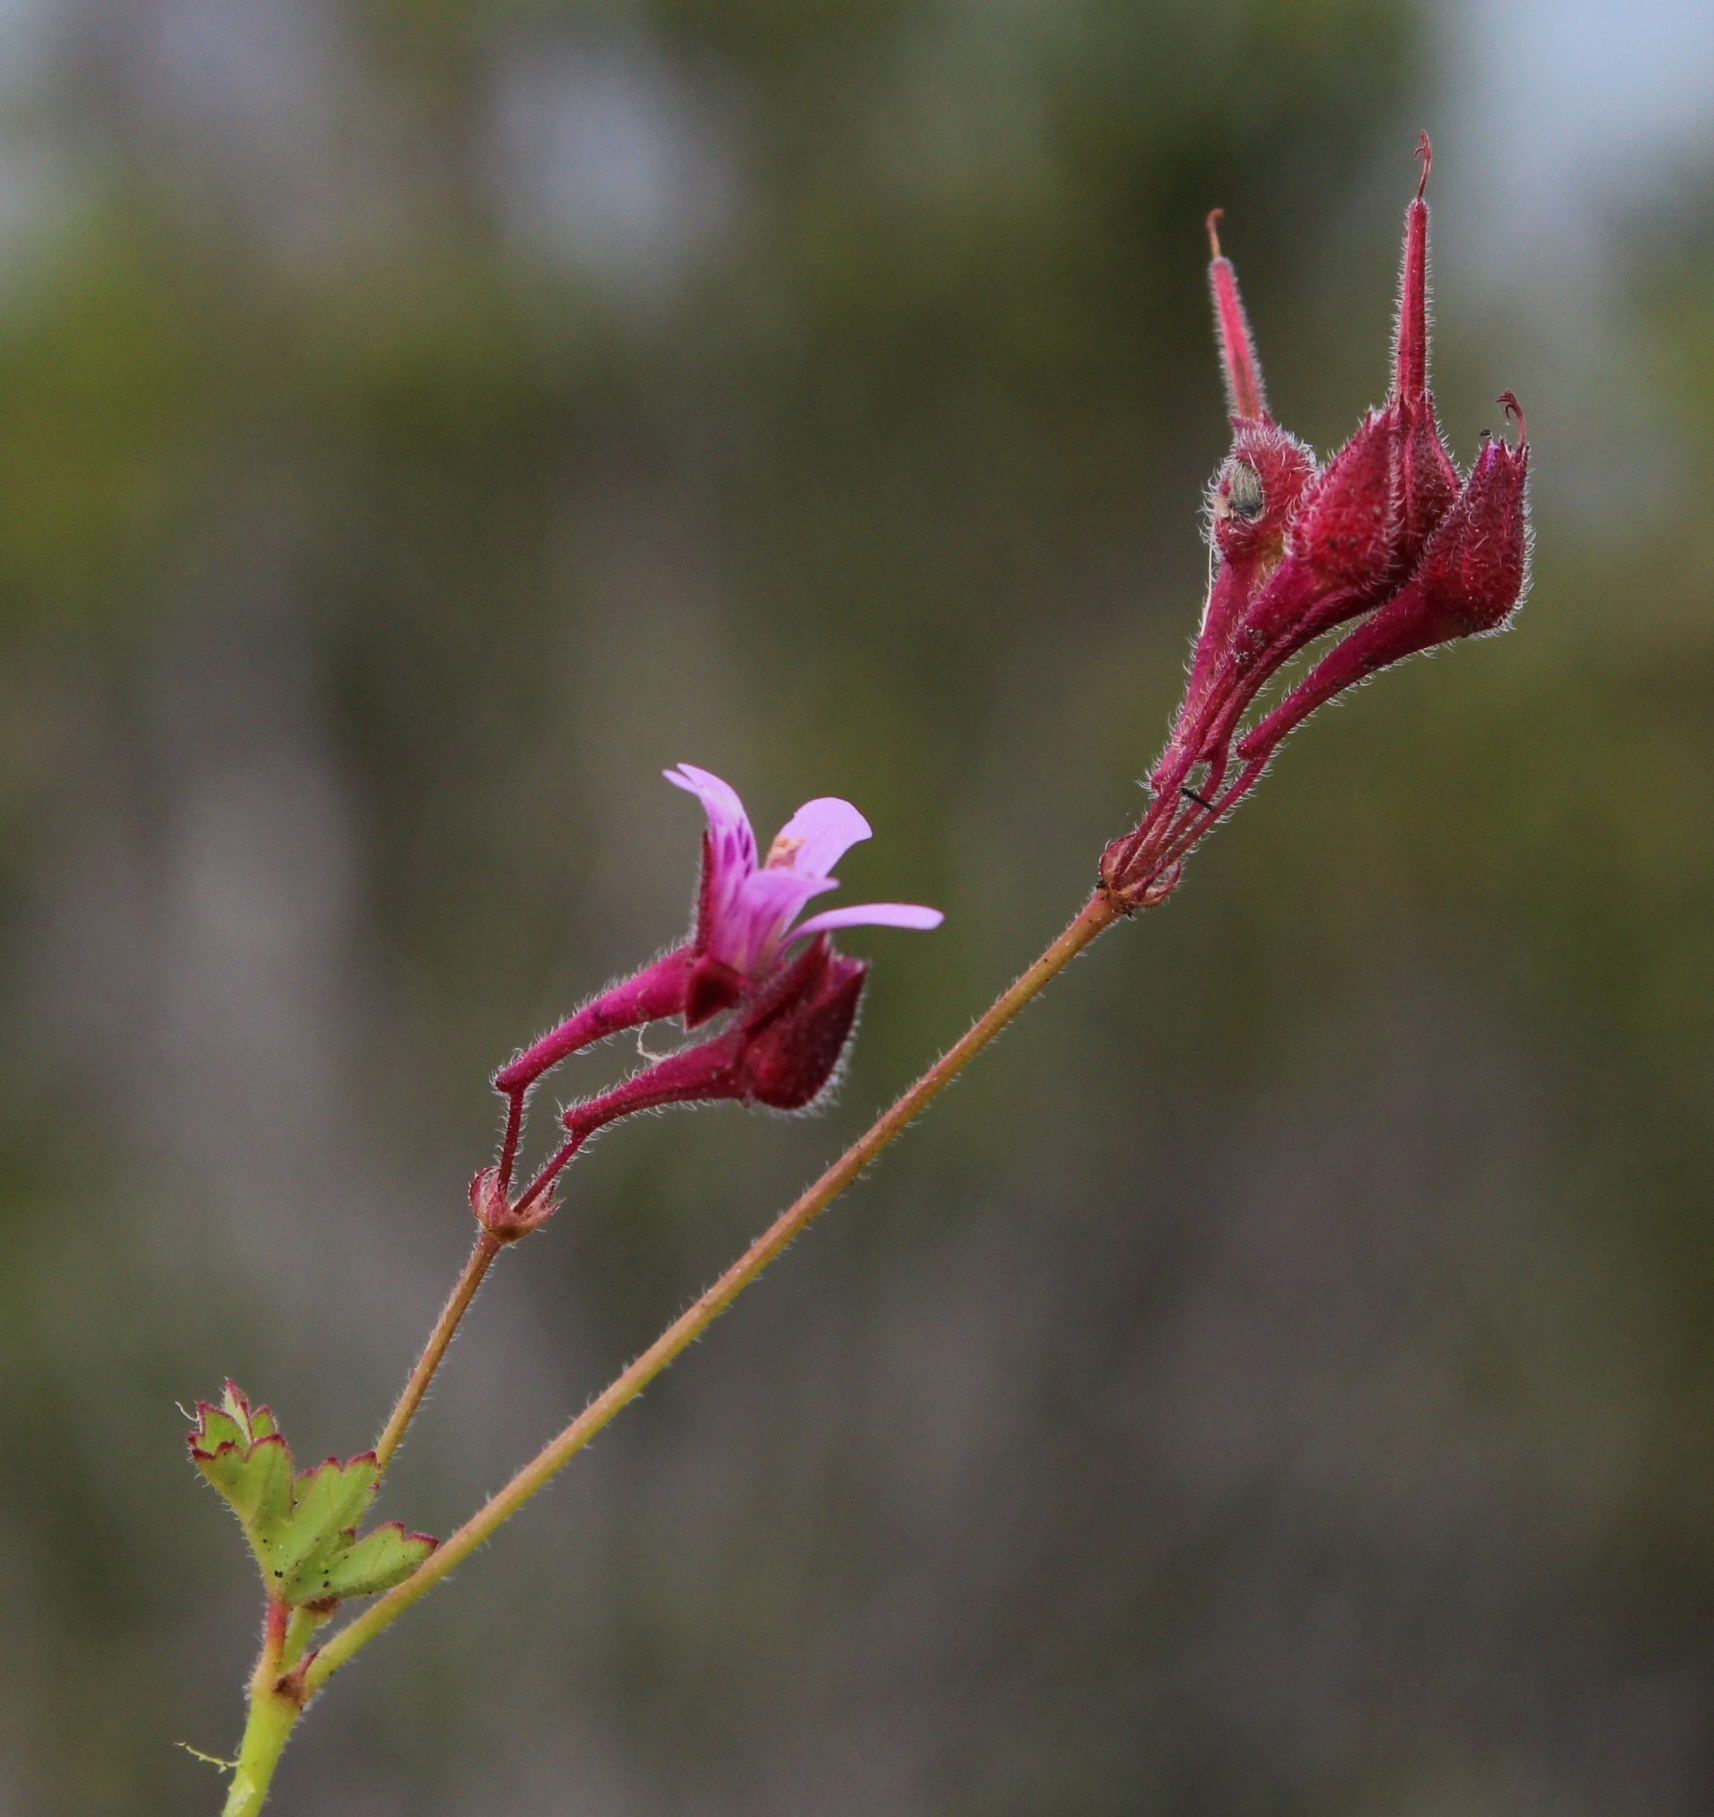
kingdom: Plantae
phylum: Tracheophyta
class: Magnoliopsida
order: Geraniales
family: Geraniaceae
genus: Pelargonium
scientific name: Pelargonium grossularioides
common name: Gooseberry geranium
